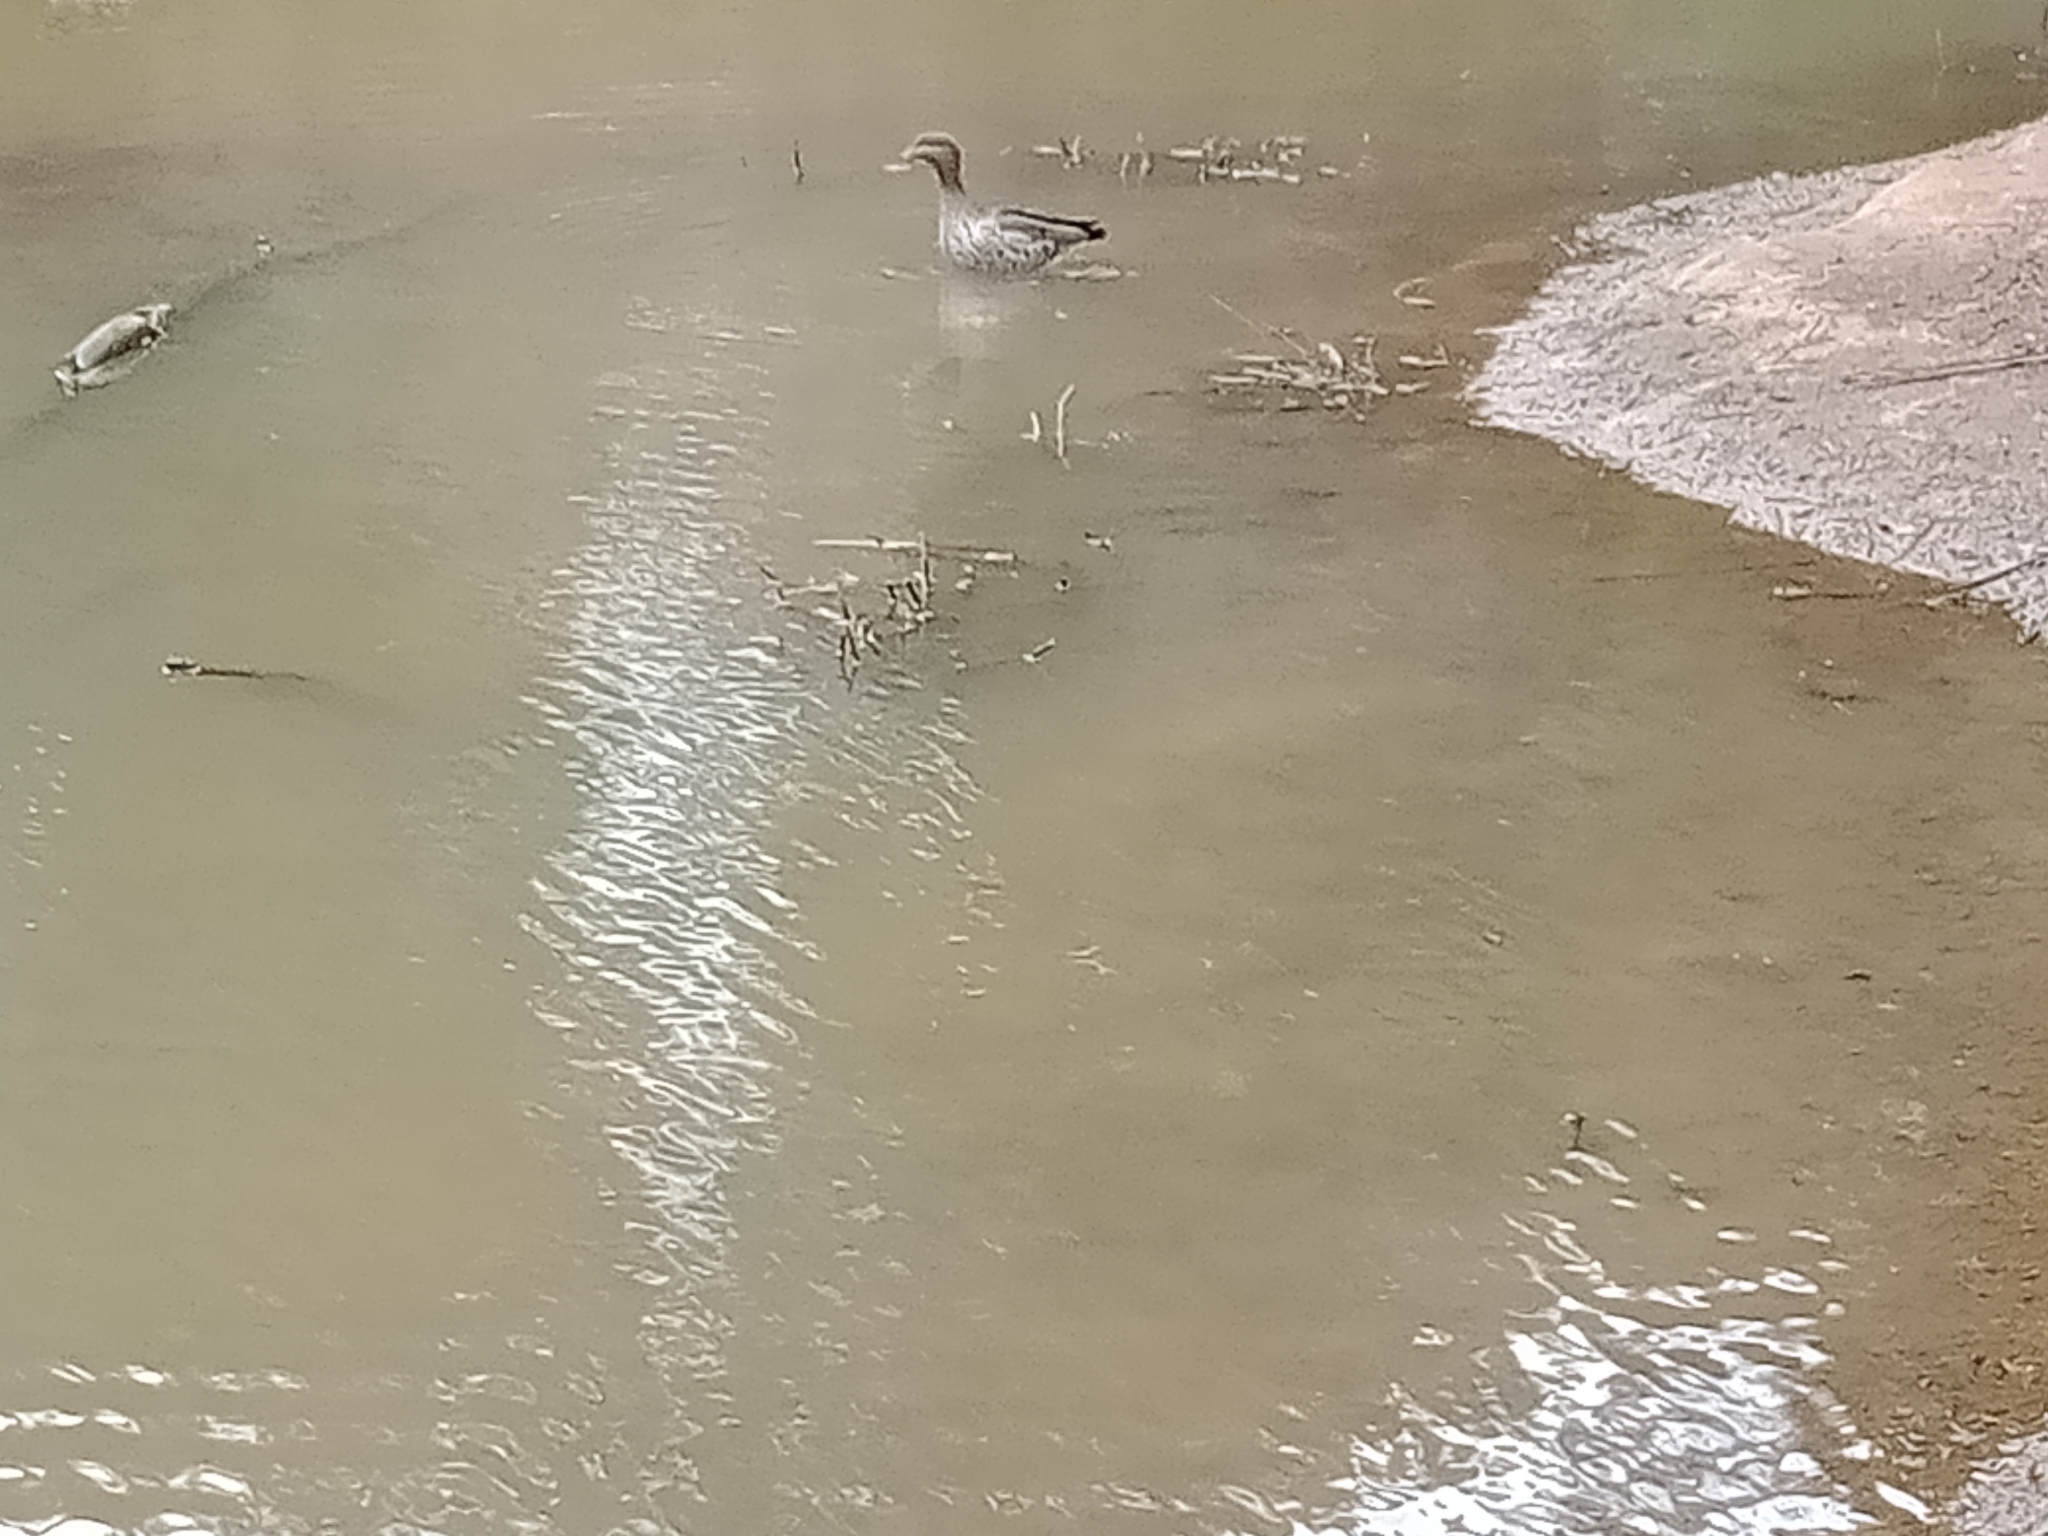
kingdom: Animalia
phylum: Chordata
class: Aves
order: Anseriformes
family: Anatidae
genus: Chenonetta
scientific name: Chenonetta jubata
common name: Maned duck
